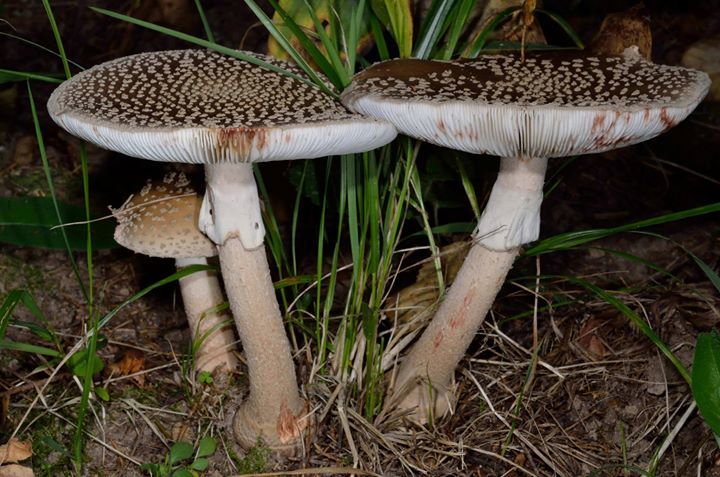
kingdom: Fungi
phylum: Basidiomycota
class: Agaricomycetes
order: Agaricales
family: Amanitaceae
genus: Amanita
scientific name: Amanita rubescens
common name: Blusher
